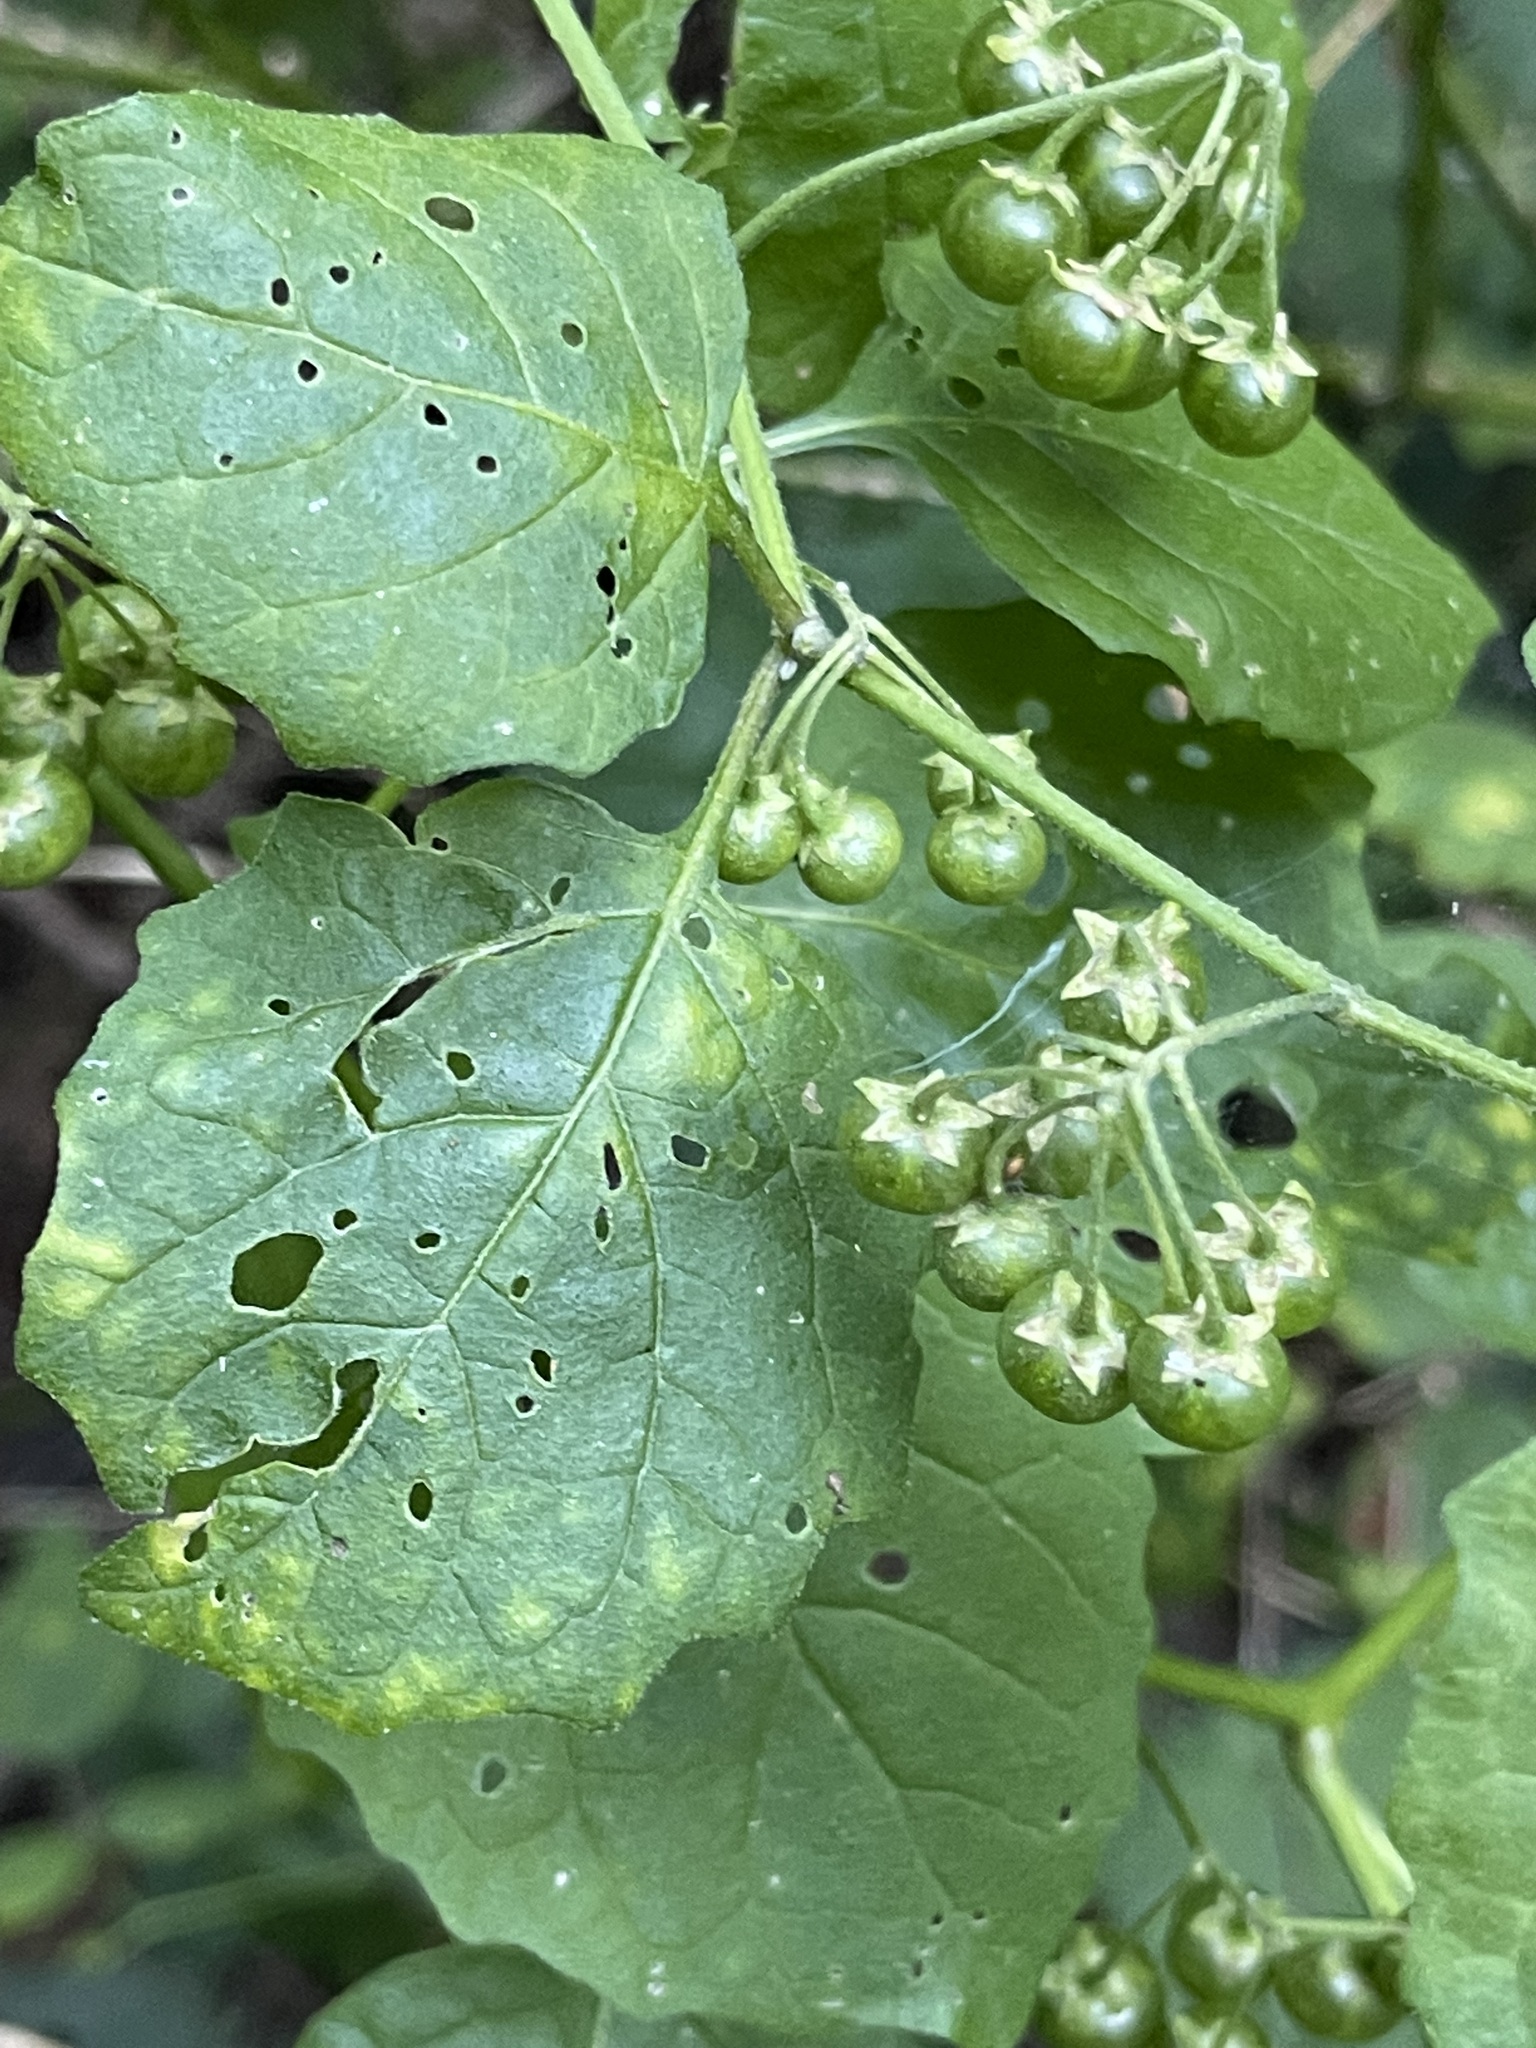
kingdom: Plantae
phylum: Tracheophyta
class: Magnoliopsida
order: Solanales
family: Solanaceae
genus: Solanum
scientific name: Solanum douglasii
